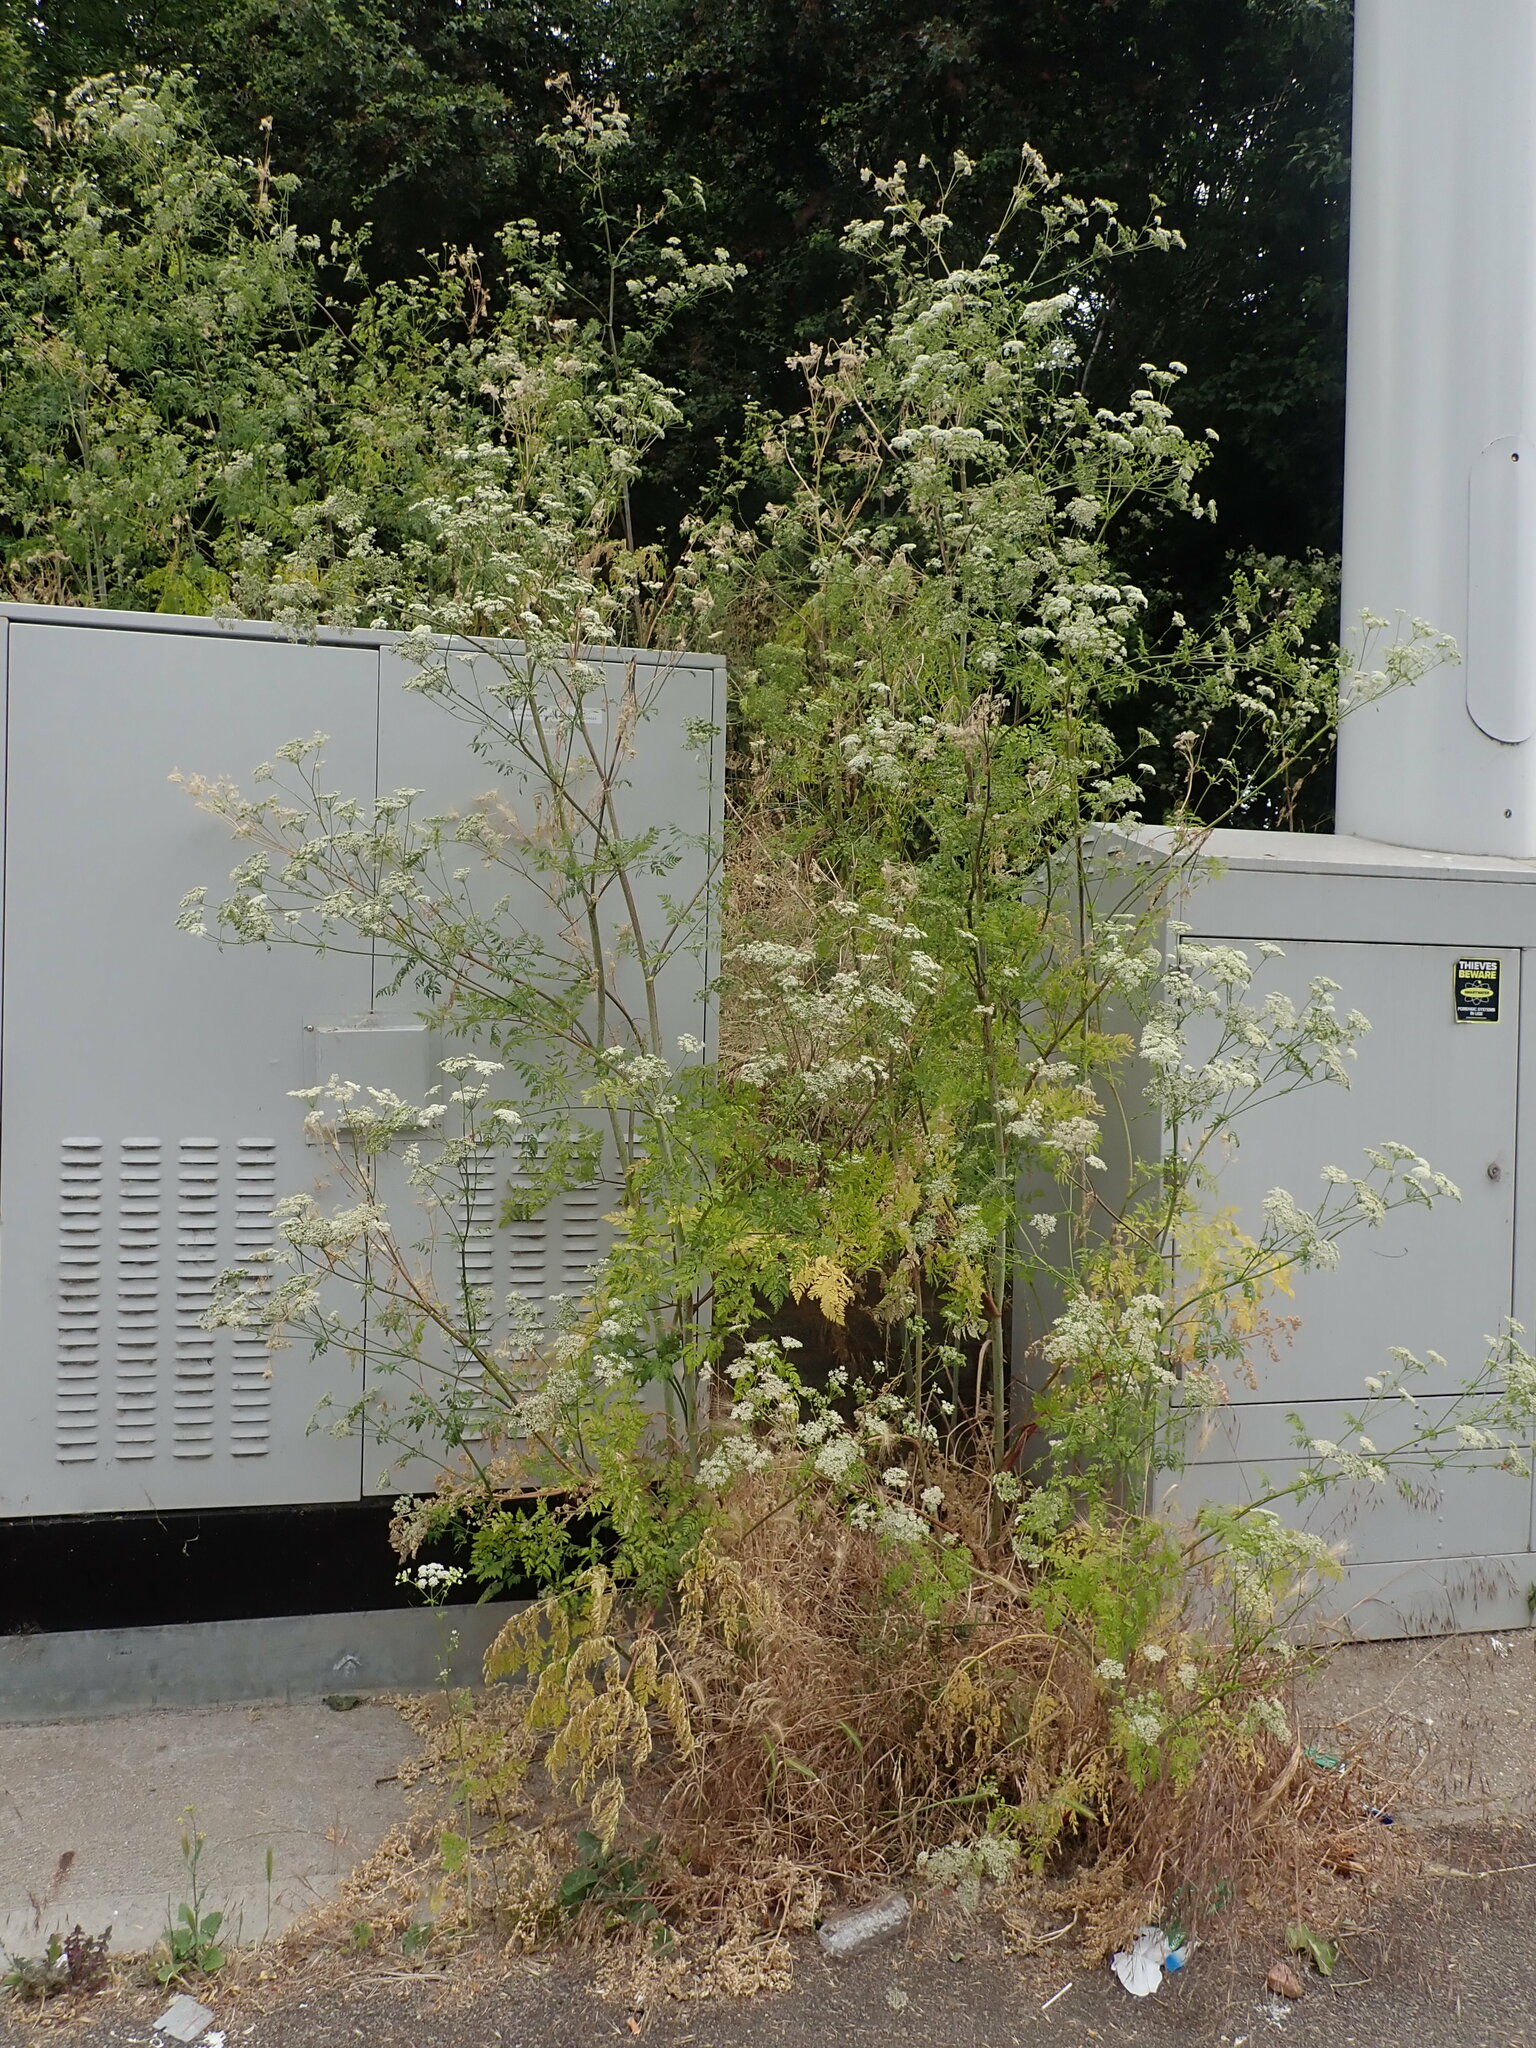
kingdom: Plantae
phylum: Tracheophyta
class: Magnoliopsida
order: Apiales
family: Apiaceae
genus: Conium
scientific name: Conium maculatum
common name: Hemlock
